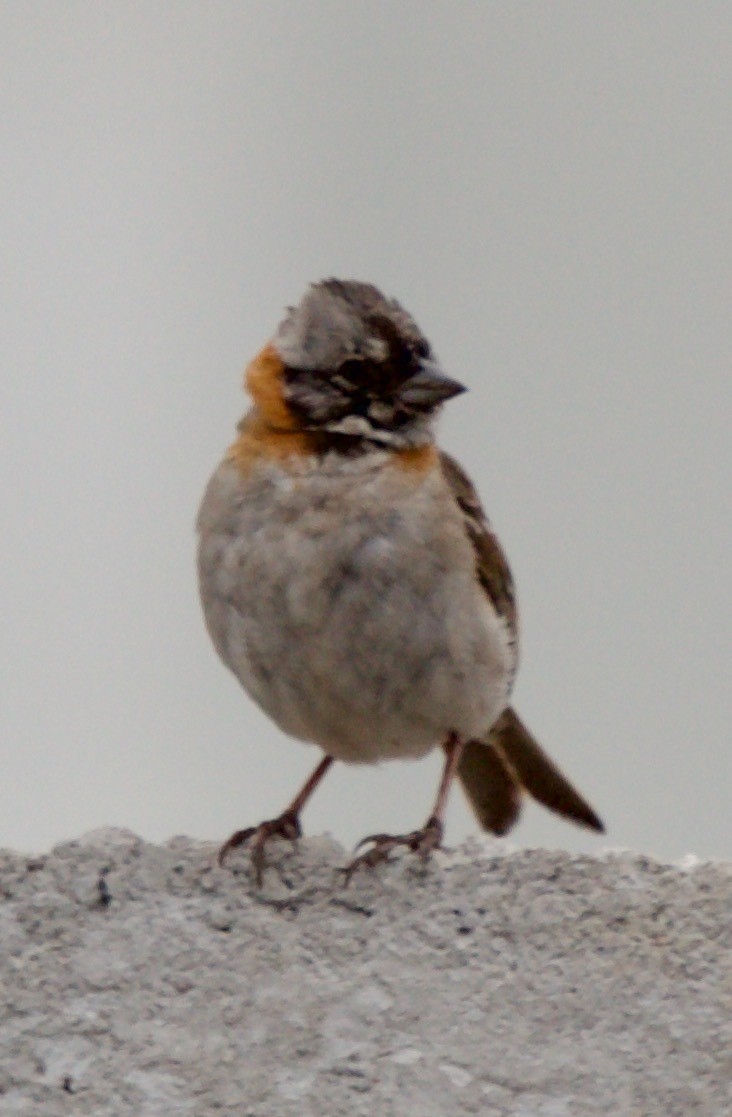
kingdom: Animalia
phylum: Chordata
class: Aves
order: Passeriformes
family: Passerellidae
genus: Zonotrichia
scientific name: Zonotrichia capensis
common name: Rufous-collared sparrow
